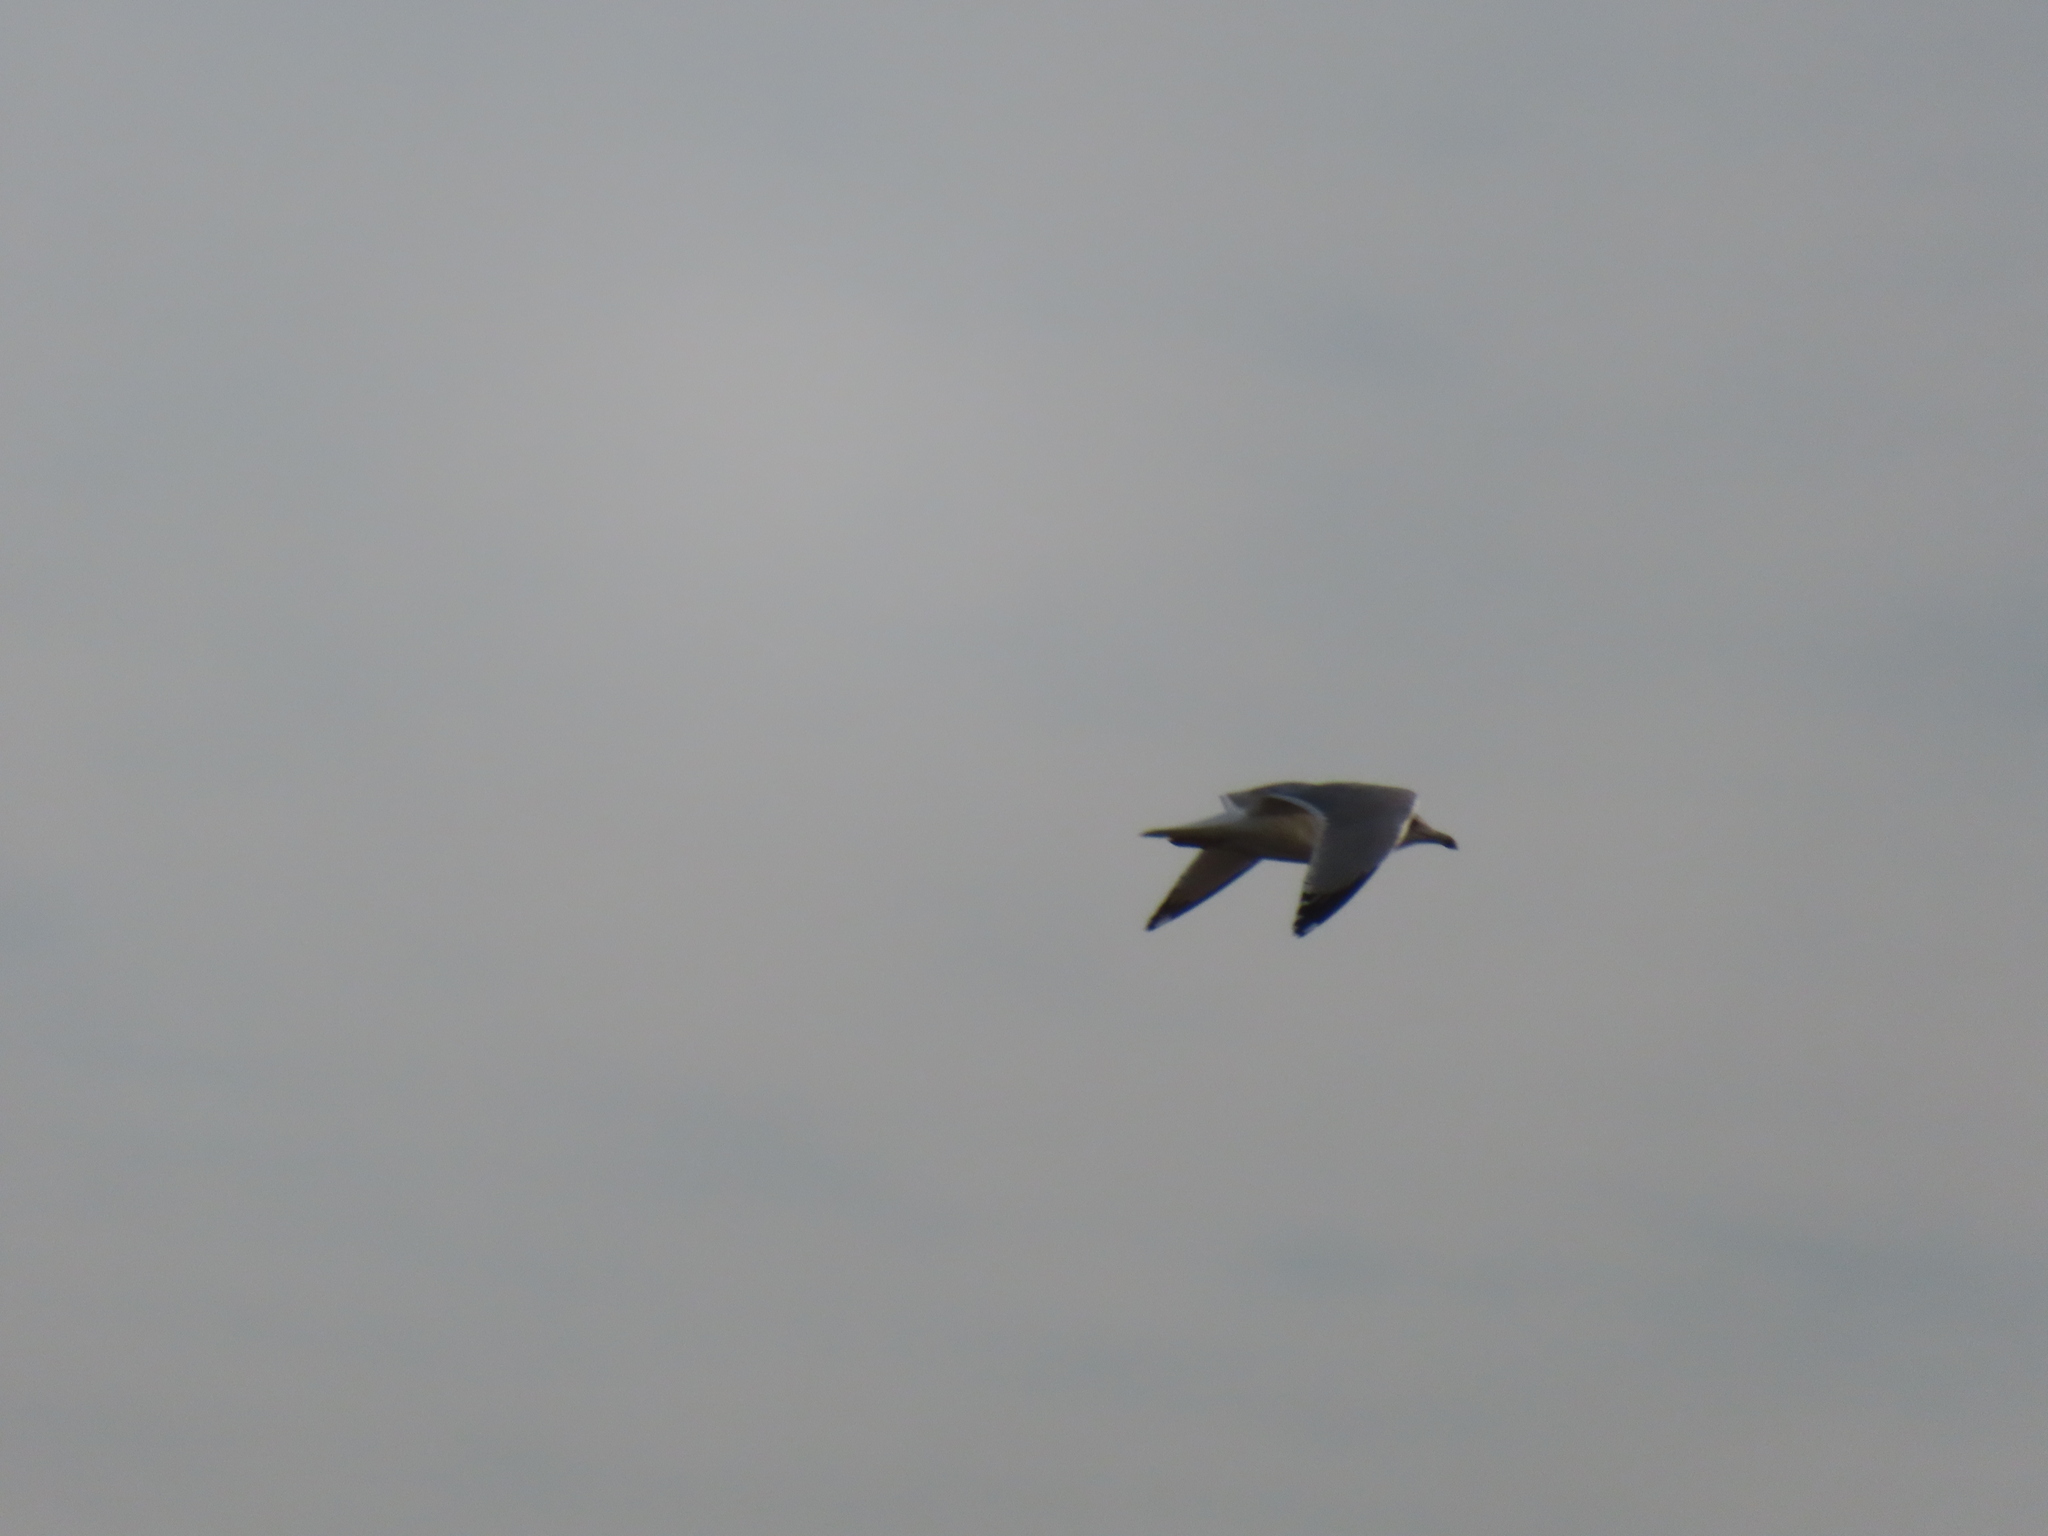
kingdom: Animalia
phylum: Chordata
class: Aves
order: Charadriiformes
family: Laridae
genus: Leucophaeus
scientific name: Leucophaeus atricilla
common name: Laughing gull
